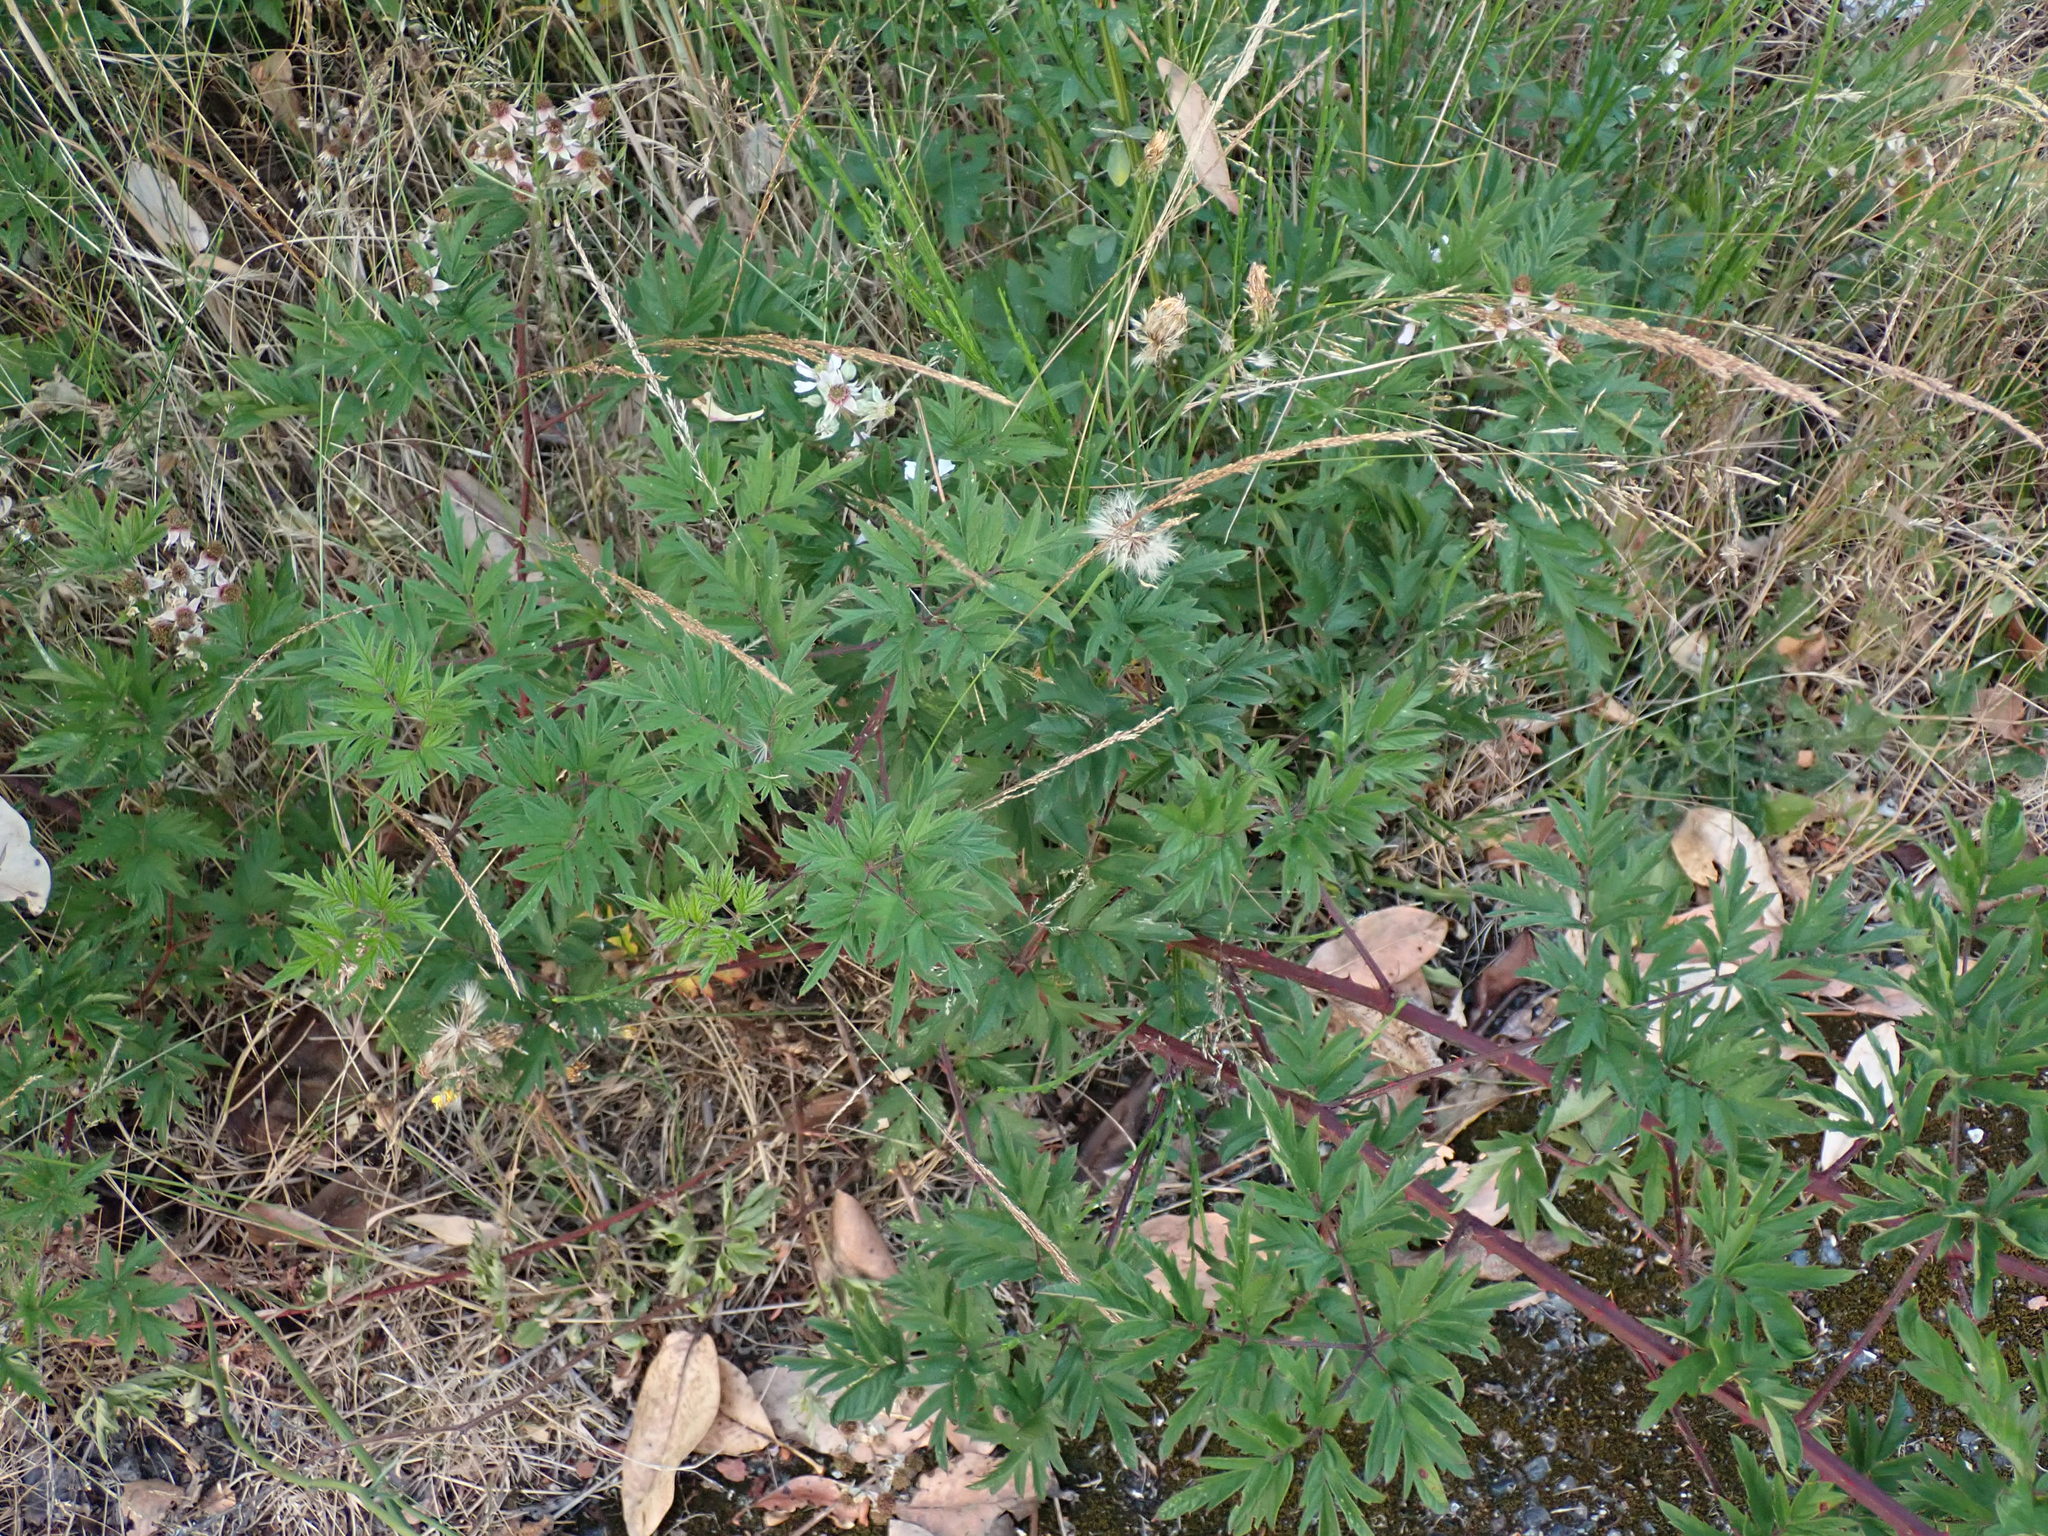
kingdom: Plantae
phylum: Tracheophyta
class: Magnoliopsida
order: Rosales
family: Rosaceae
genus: Rubus
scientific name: Rubus laciniatus
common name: Evergreen blackberry
